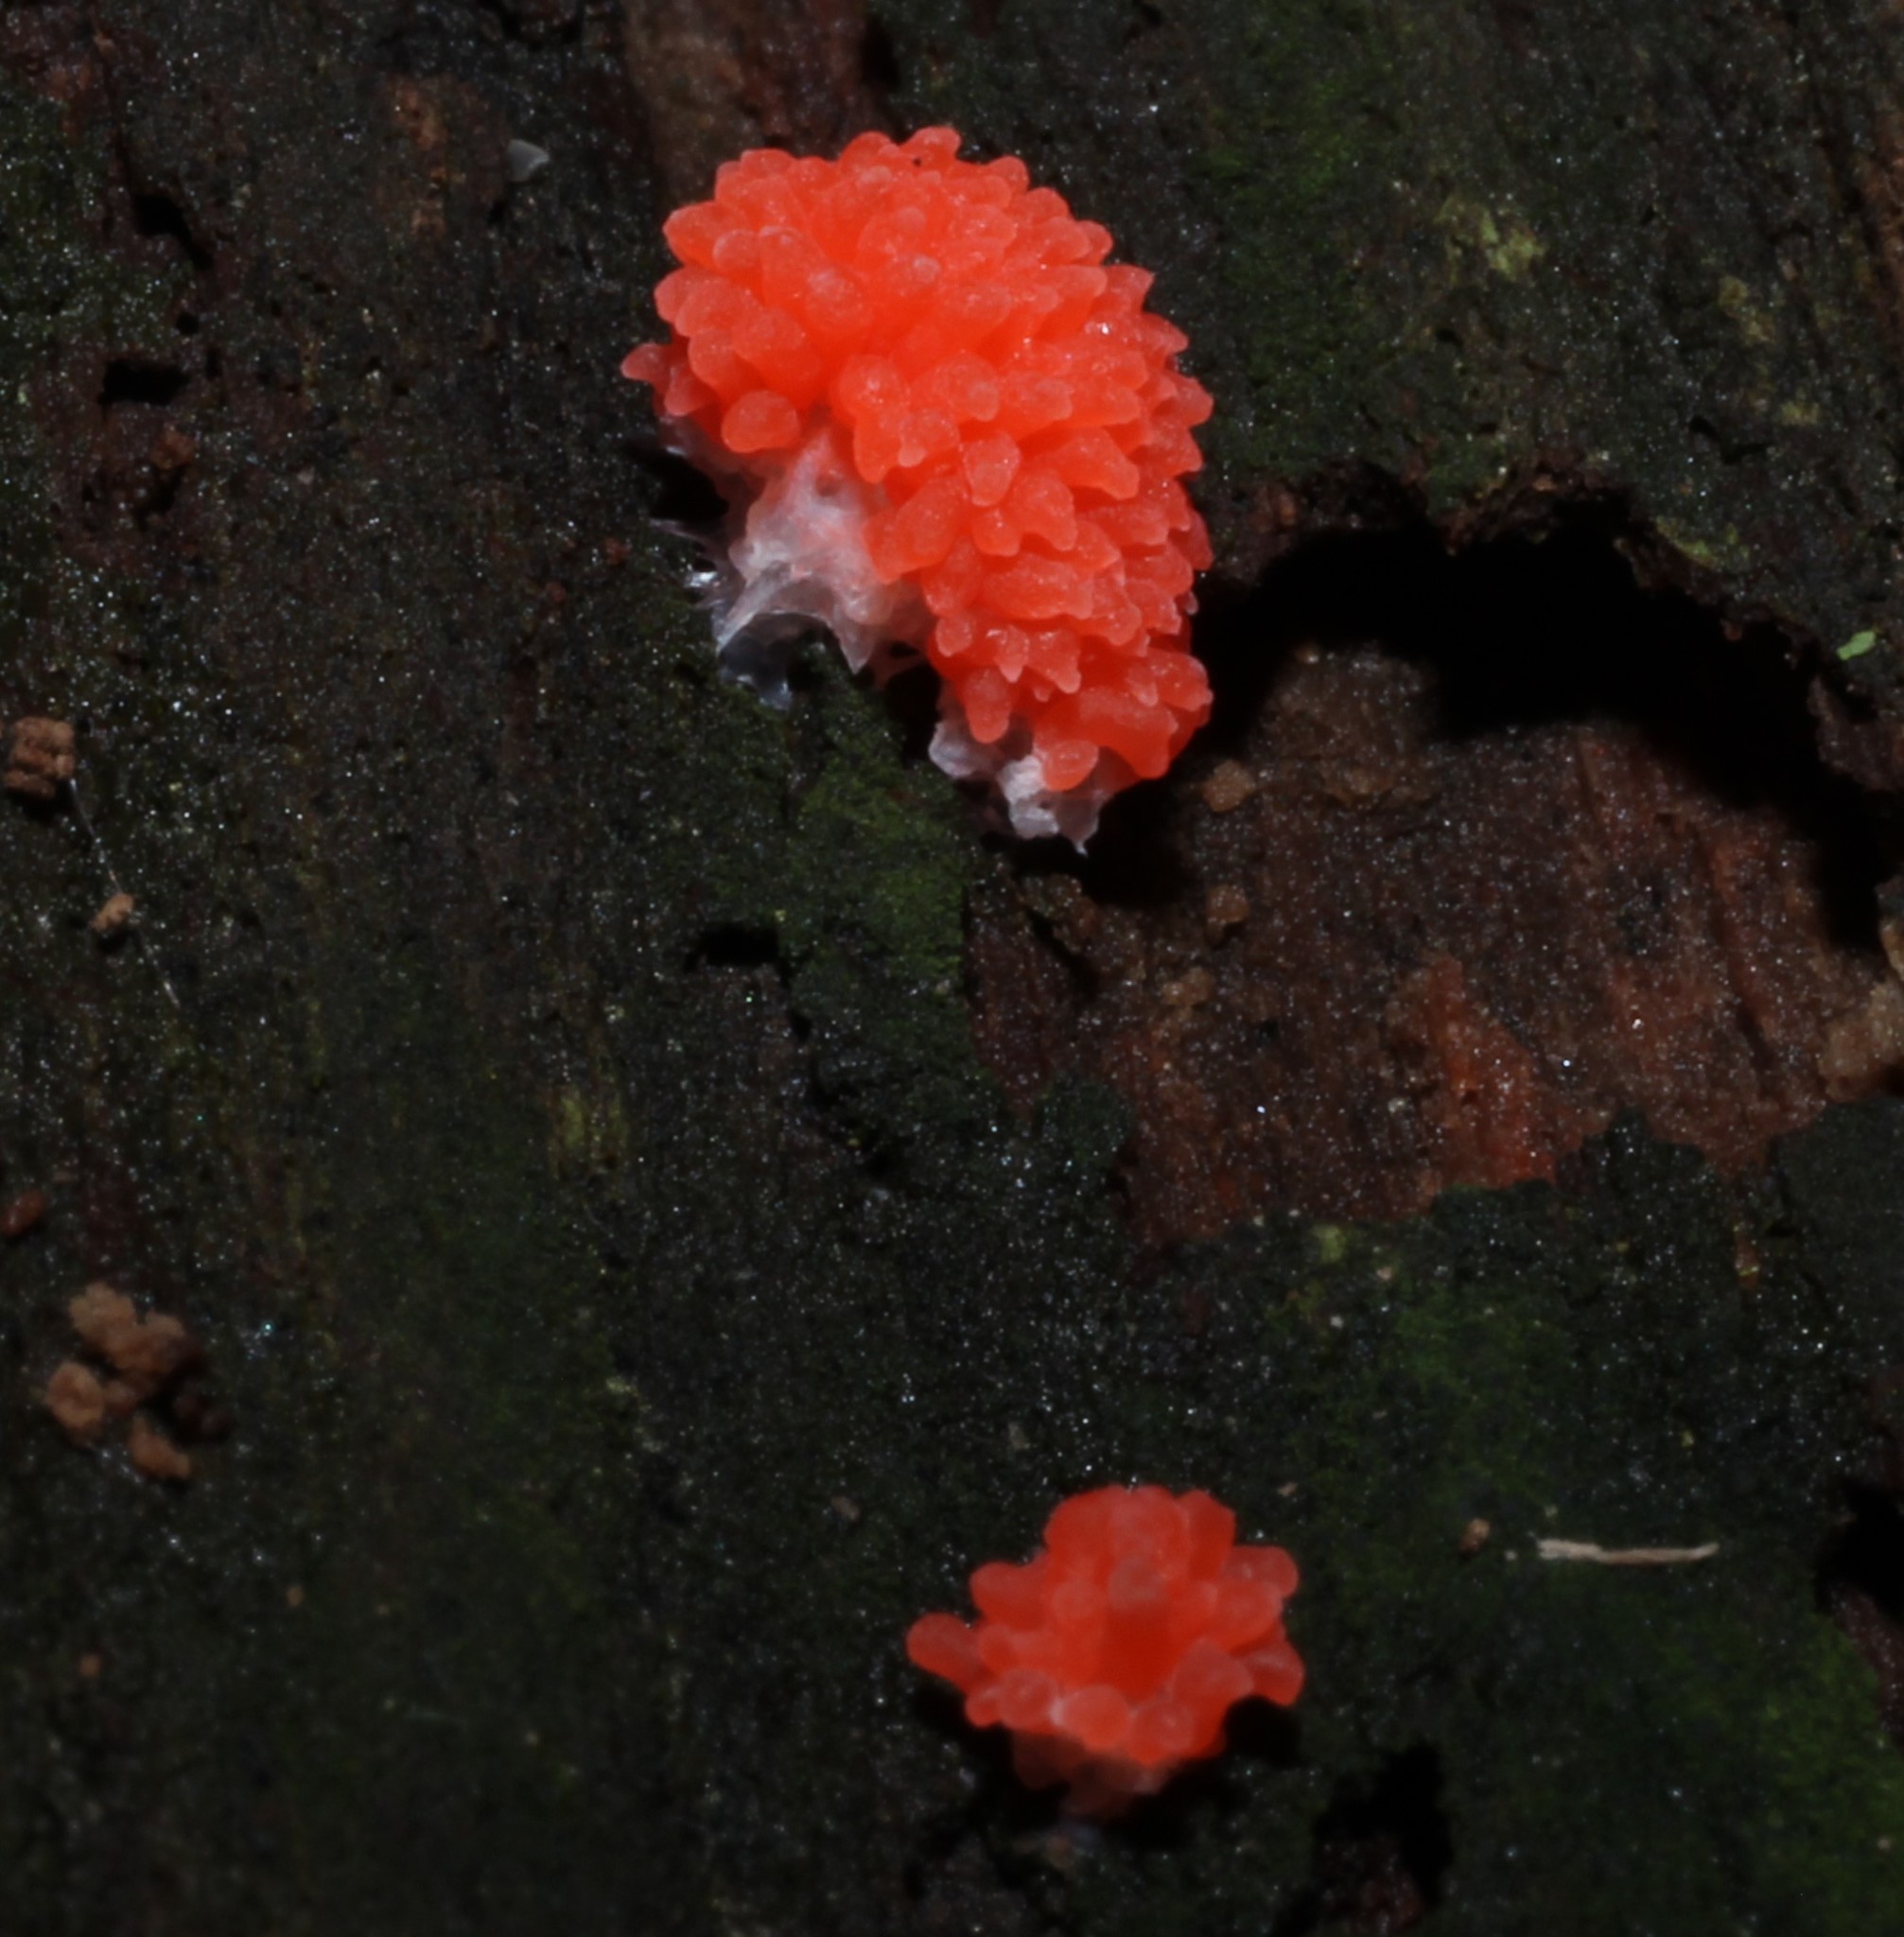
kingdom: Protozoa
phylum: Mycetozoa
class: Myxomycetes
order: Cribrariales
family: Tubiferaceae
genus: Tubifera
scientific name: Tubifera ferruginosa
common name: Red raspberry slime mold
